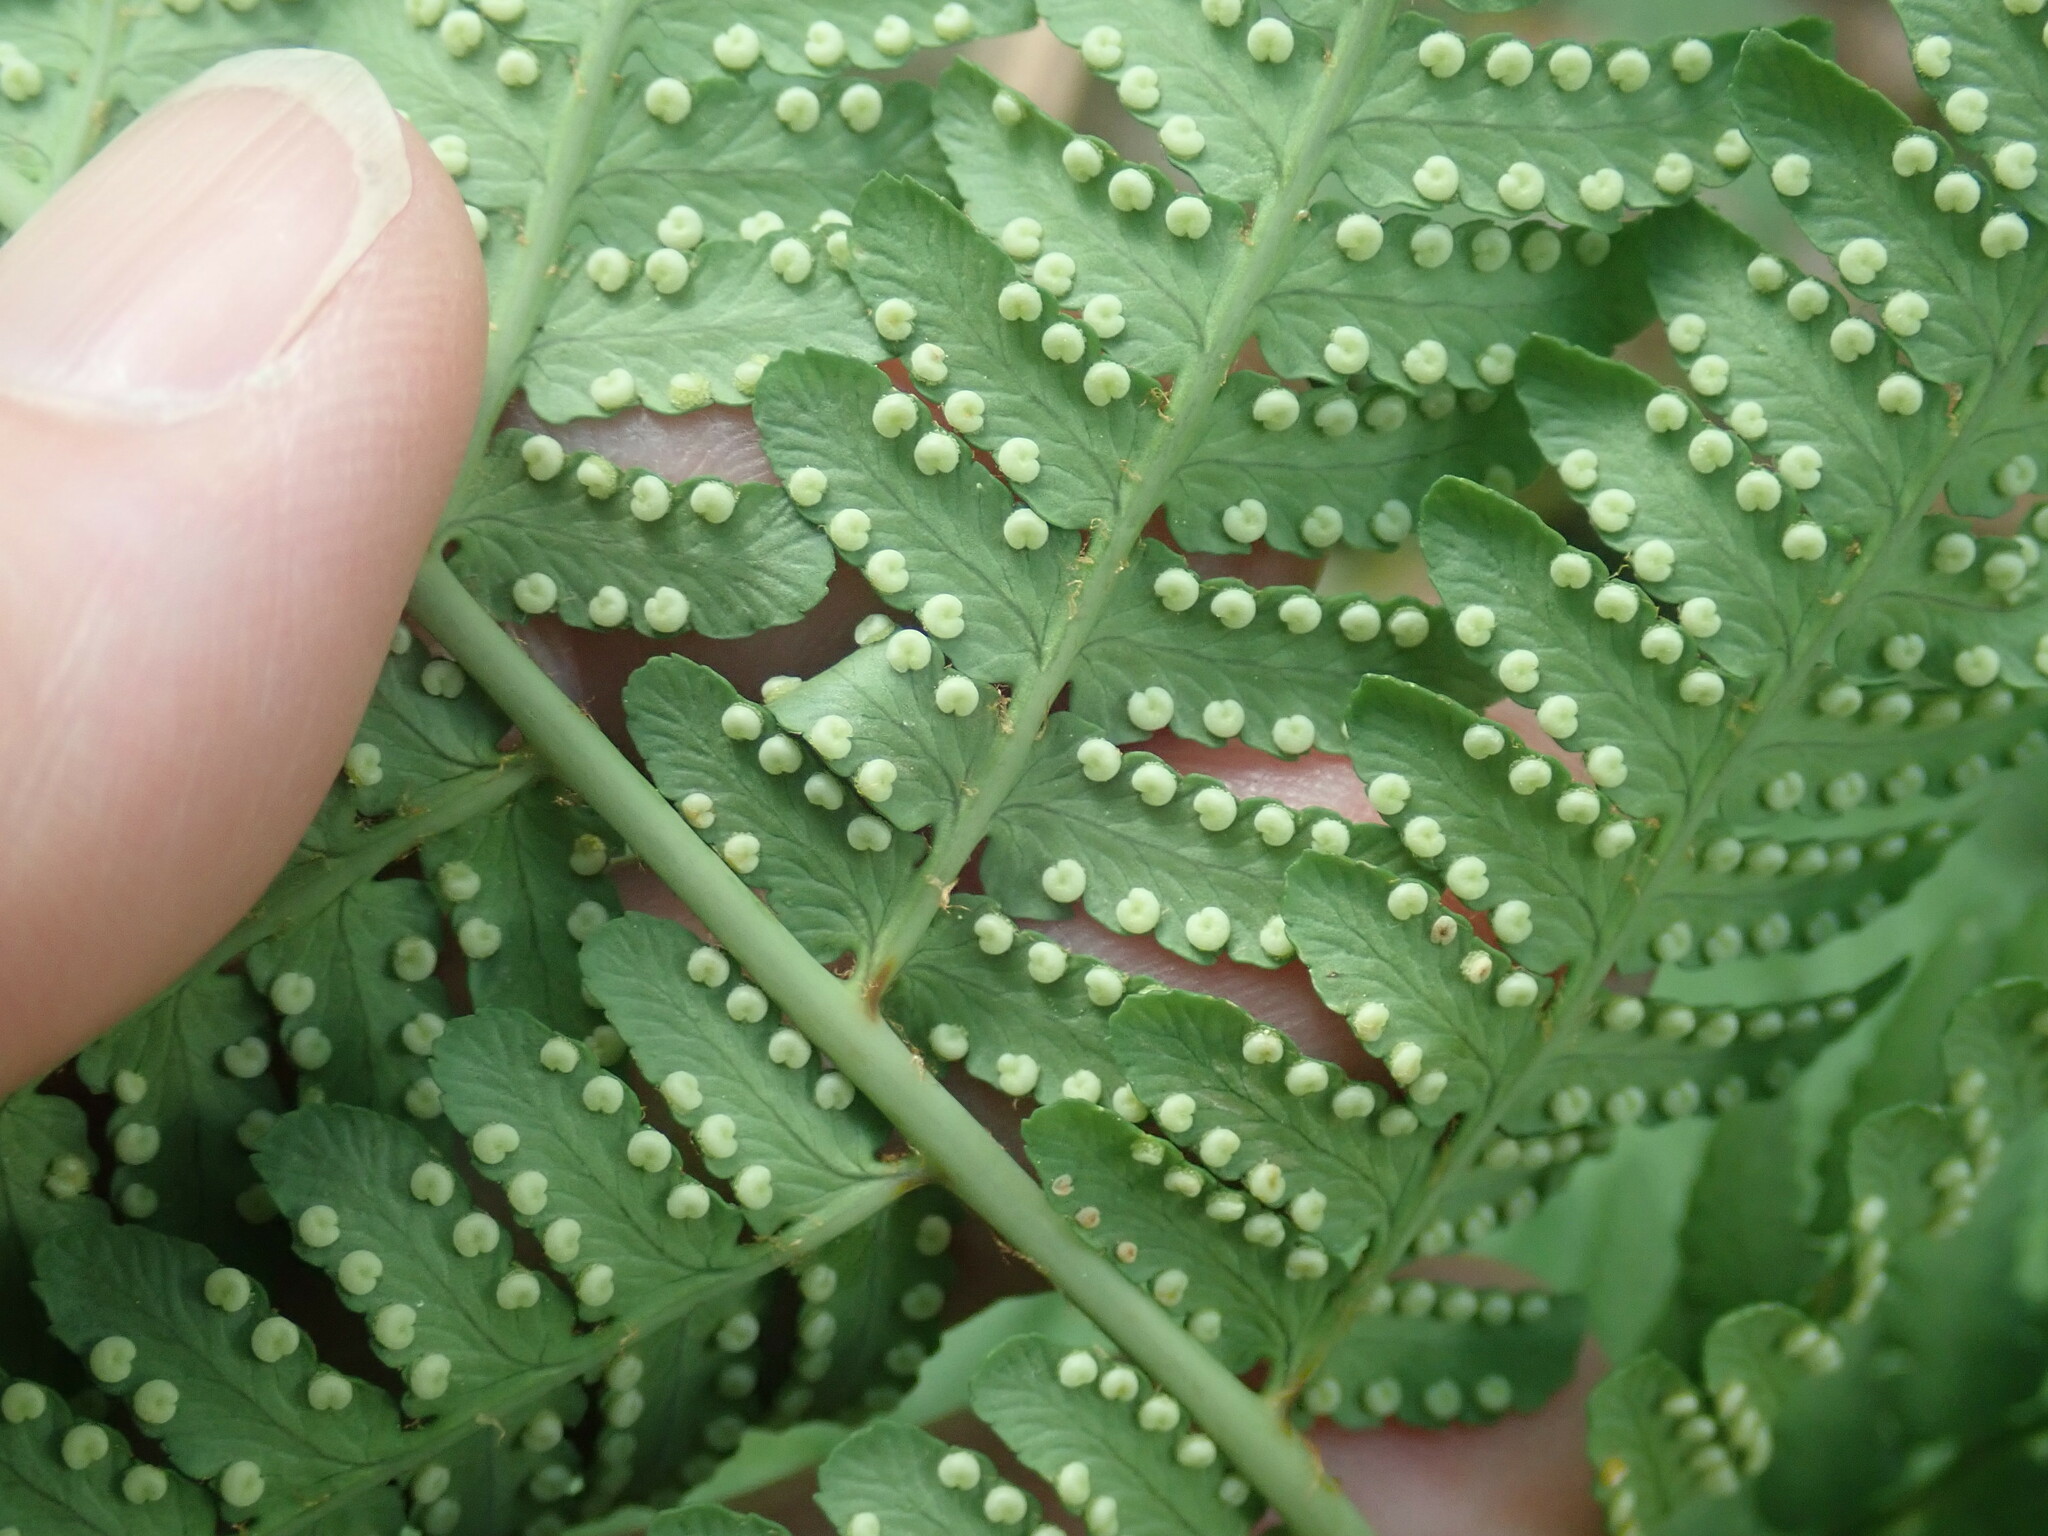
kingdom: Plantae
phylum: Tracheophyta
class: Polypodiopsida
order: Polypodiales
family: Dryopteridaceae
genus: Dryopteris
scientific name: Dryopteris marginalis
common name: Marginal wood fern
